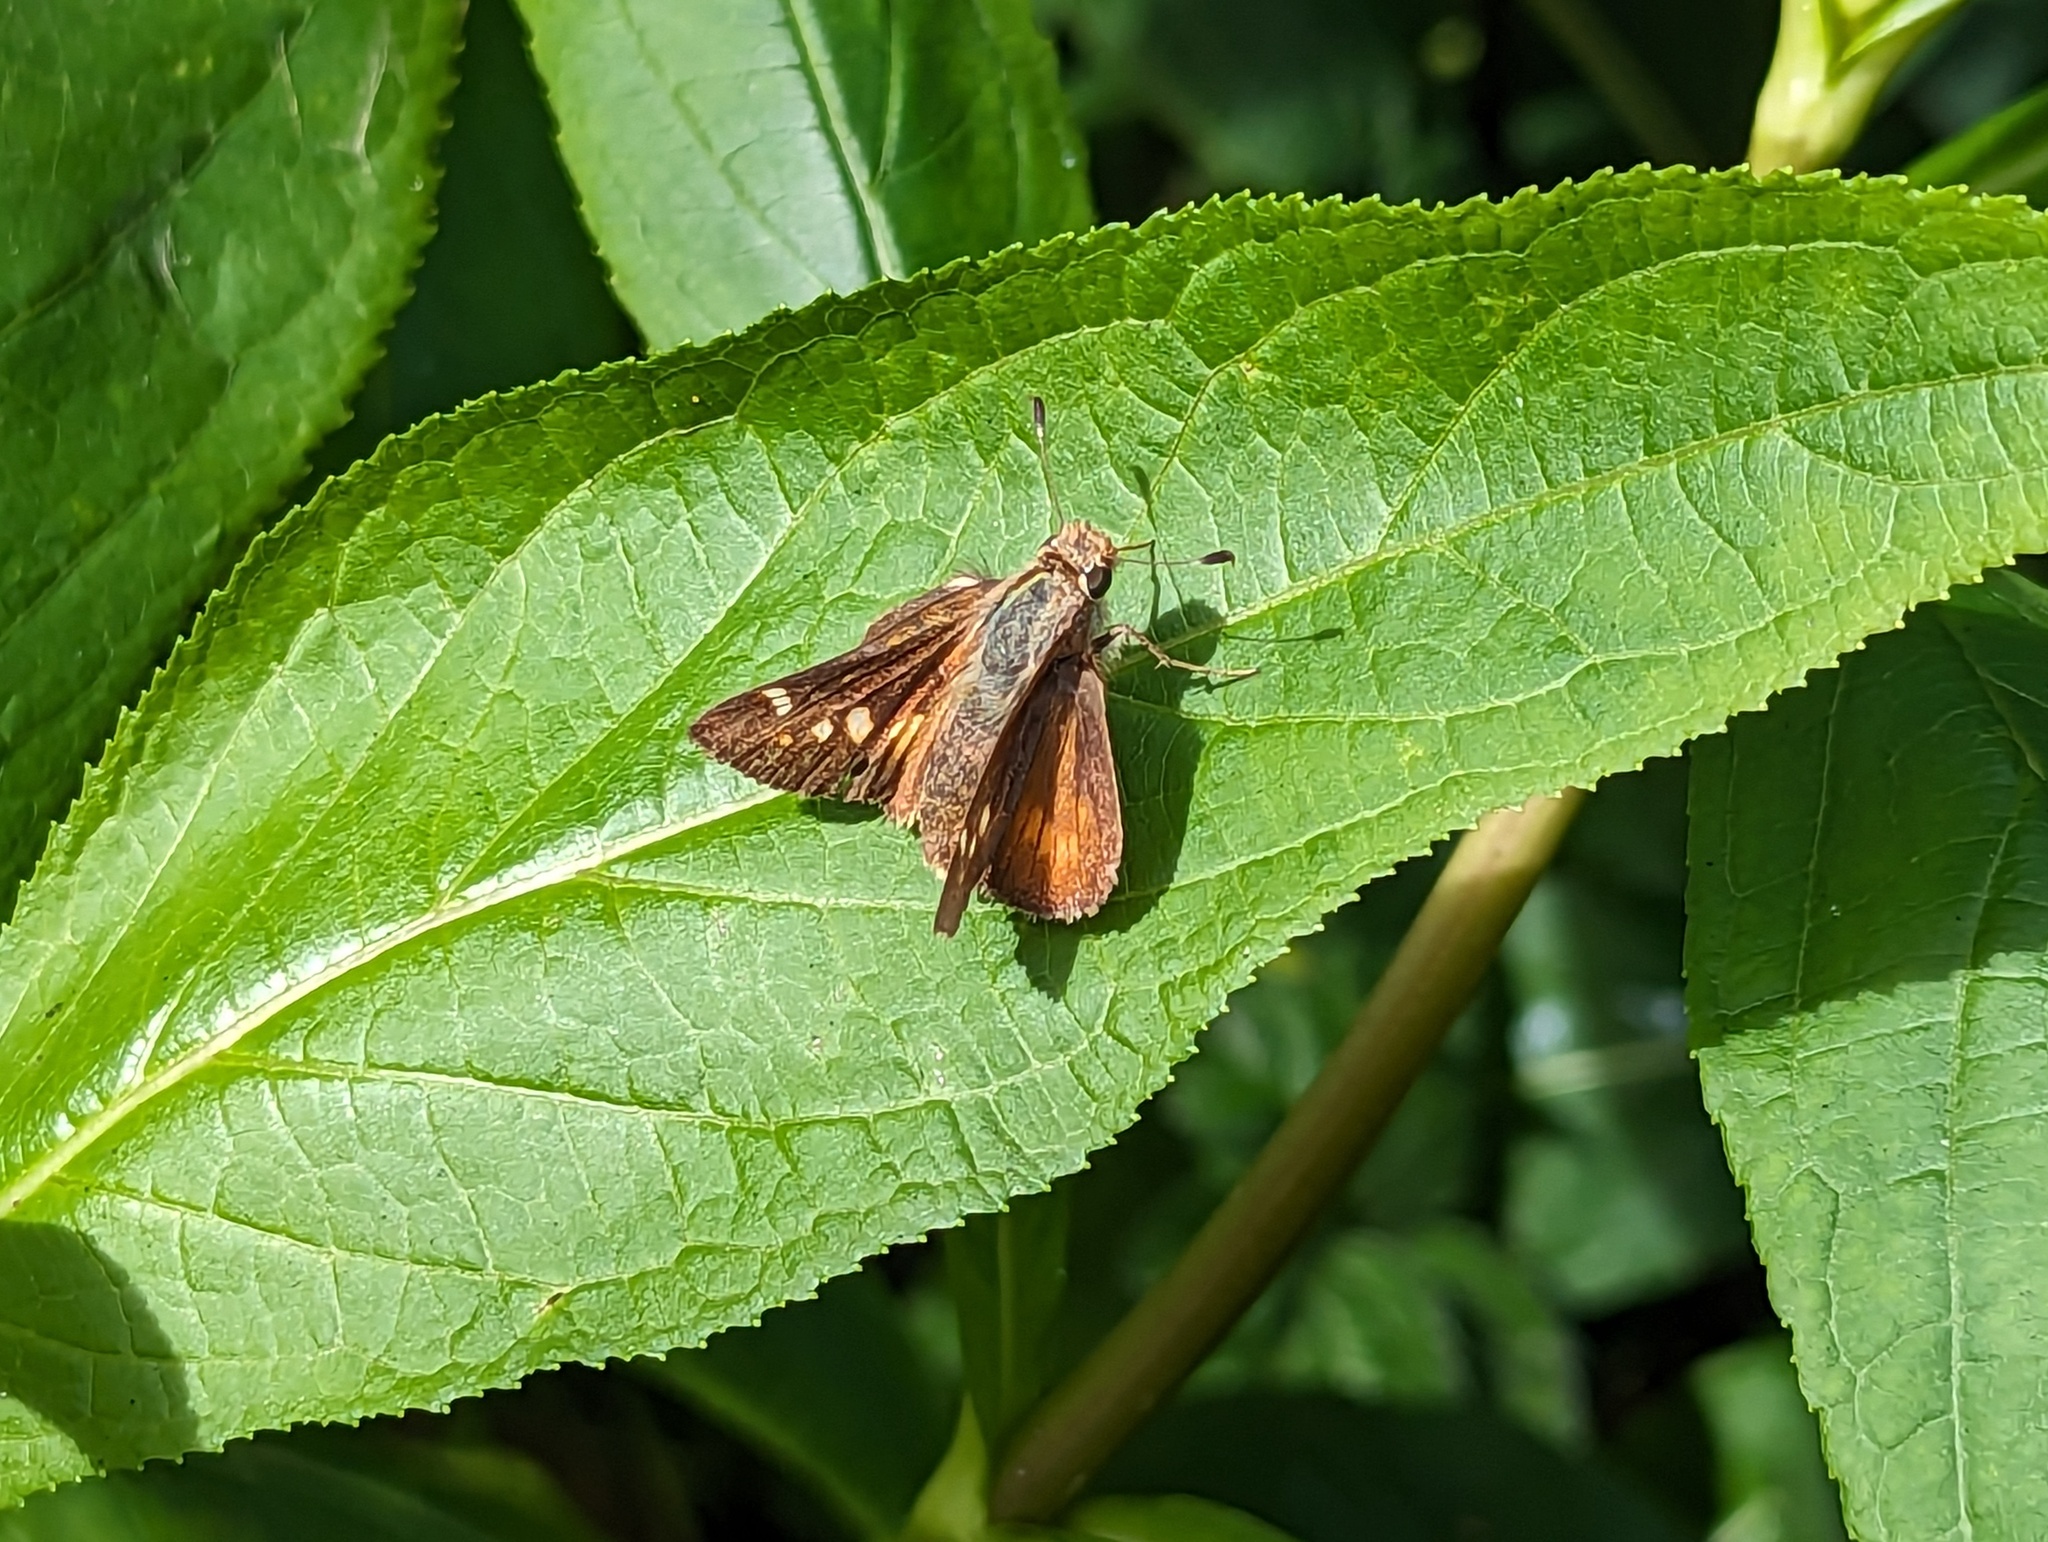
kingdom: Animalia
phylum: Arthropoda
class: Insecta
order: Lepidoptera
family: Hesperiidae
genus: Lon
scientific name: Lon melane
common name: Umber skipper
